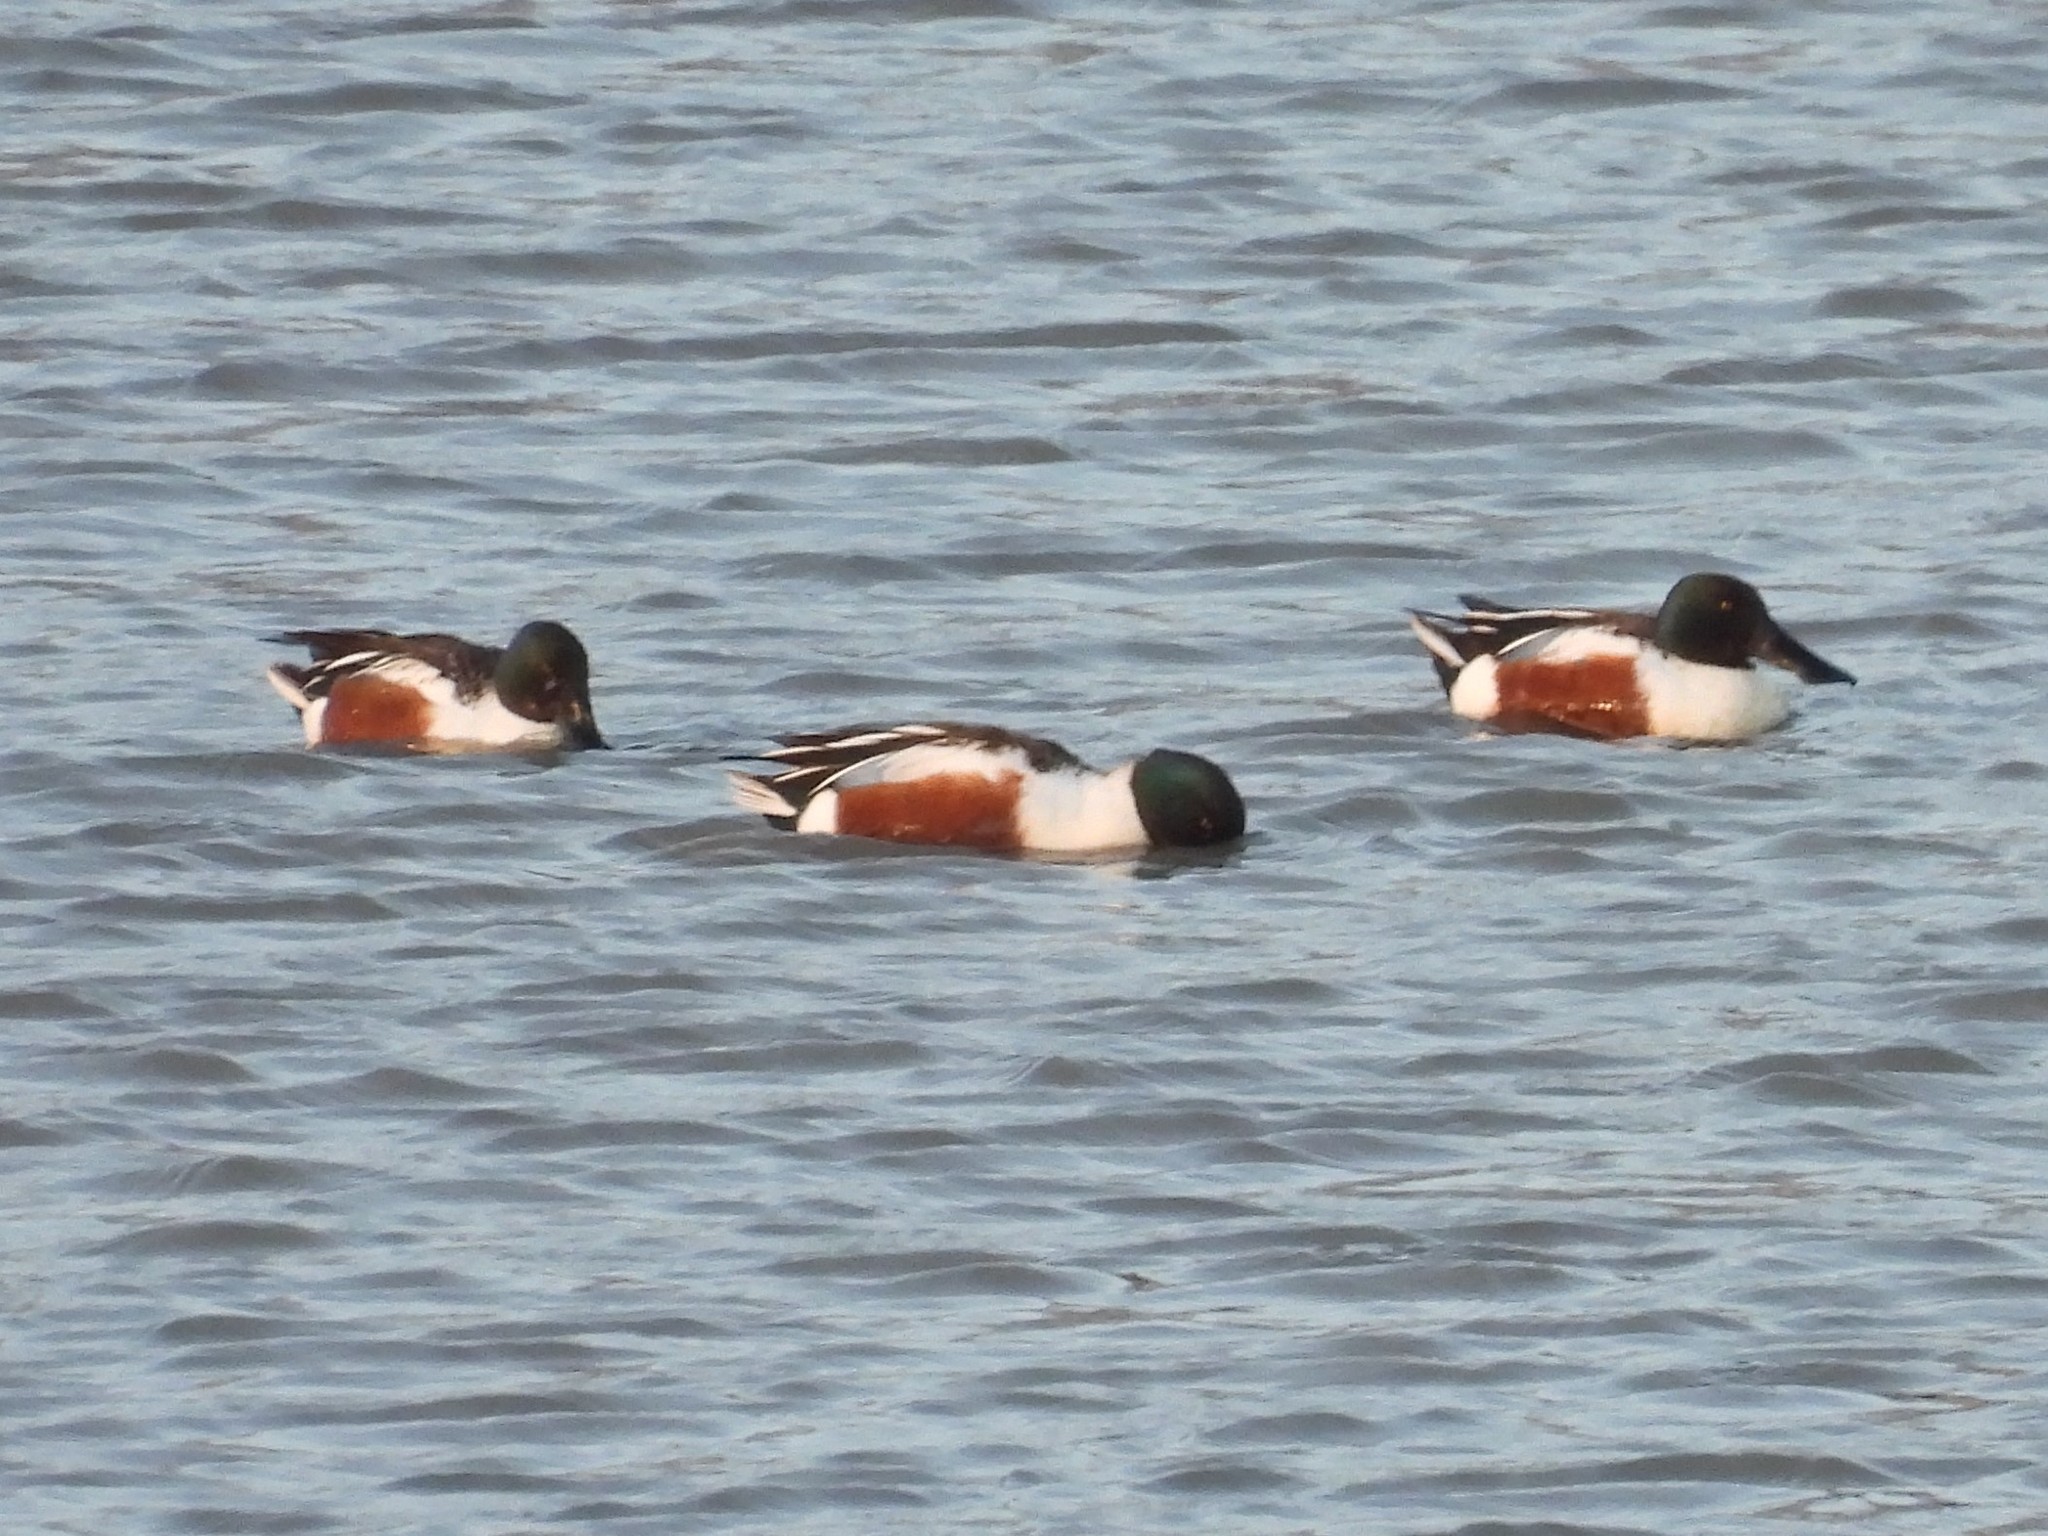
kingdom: Animalia
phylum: Chordata
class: Aves
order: Anseriformes
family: Anatidae
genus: Spatula
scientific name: Spatula clypeata
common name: Northern shoveler
